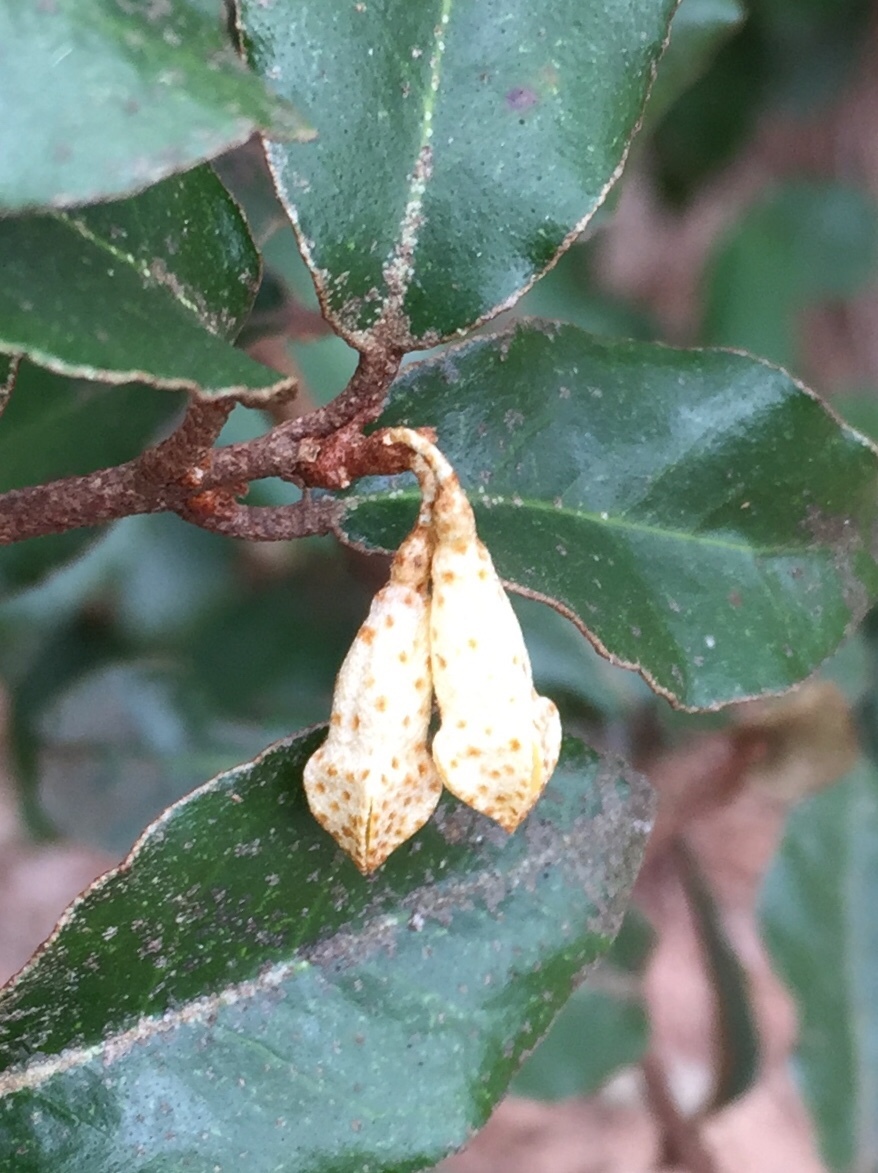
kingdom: Plantae
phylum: Tracheophyta
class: Magnoliopsida
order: Rosales
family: Elaeagnaceae
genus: Elaeagnus
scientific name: Elaeagnus pungens
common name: Spiny oleaster
